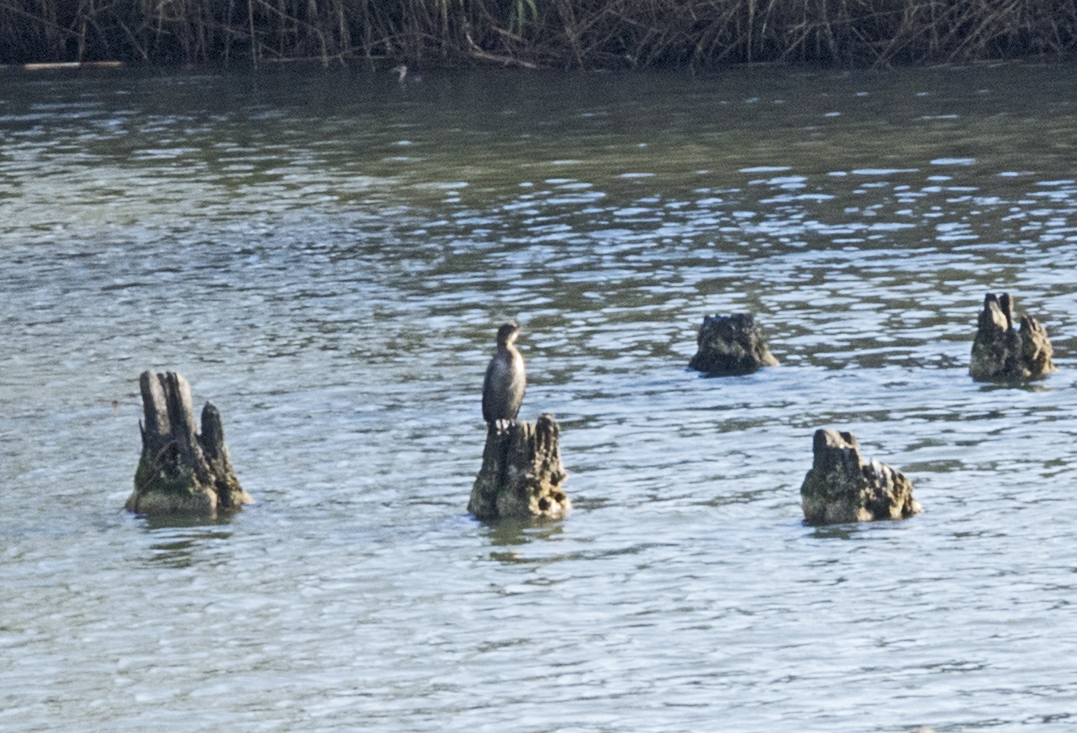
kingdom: Animalia
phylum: Chordata
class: Aves
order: Suliformes
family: Phalacrocoracidae
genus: Microcarbo
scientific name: Microcarbo pygmaeus
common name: Pygmy cormorant
